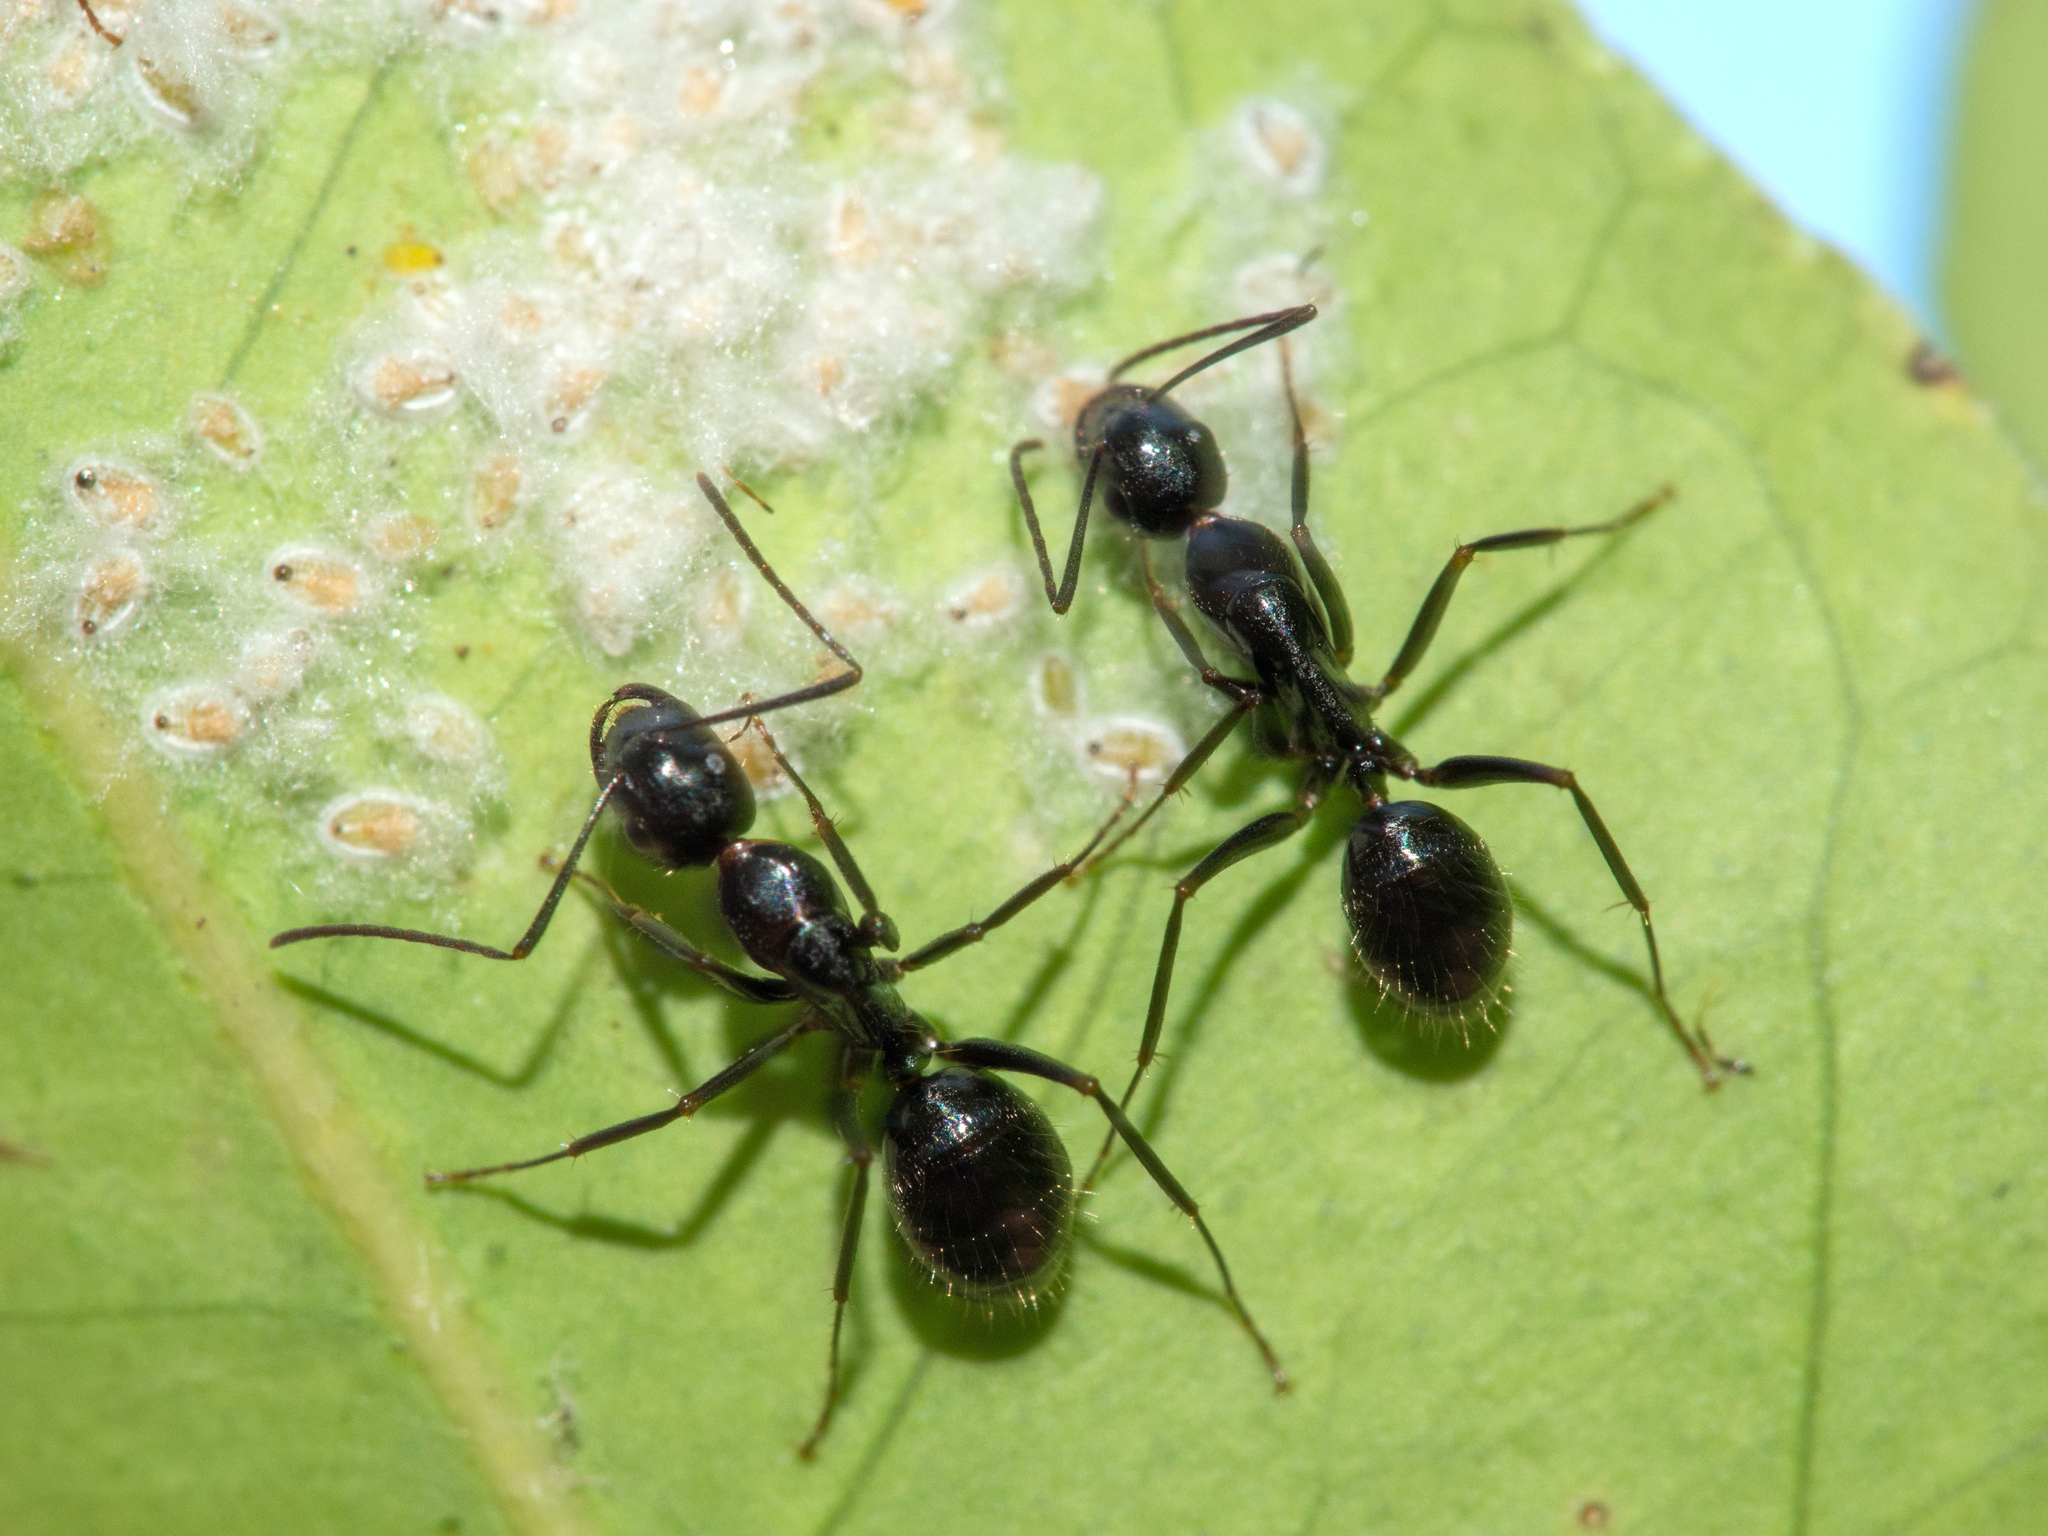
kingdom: Animalia
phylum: Arthropoda
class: Insecta
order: Hymenoptera
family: Formicidae
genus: Camponotus
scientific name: Camponotus aethiops
